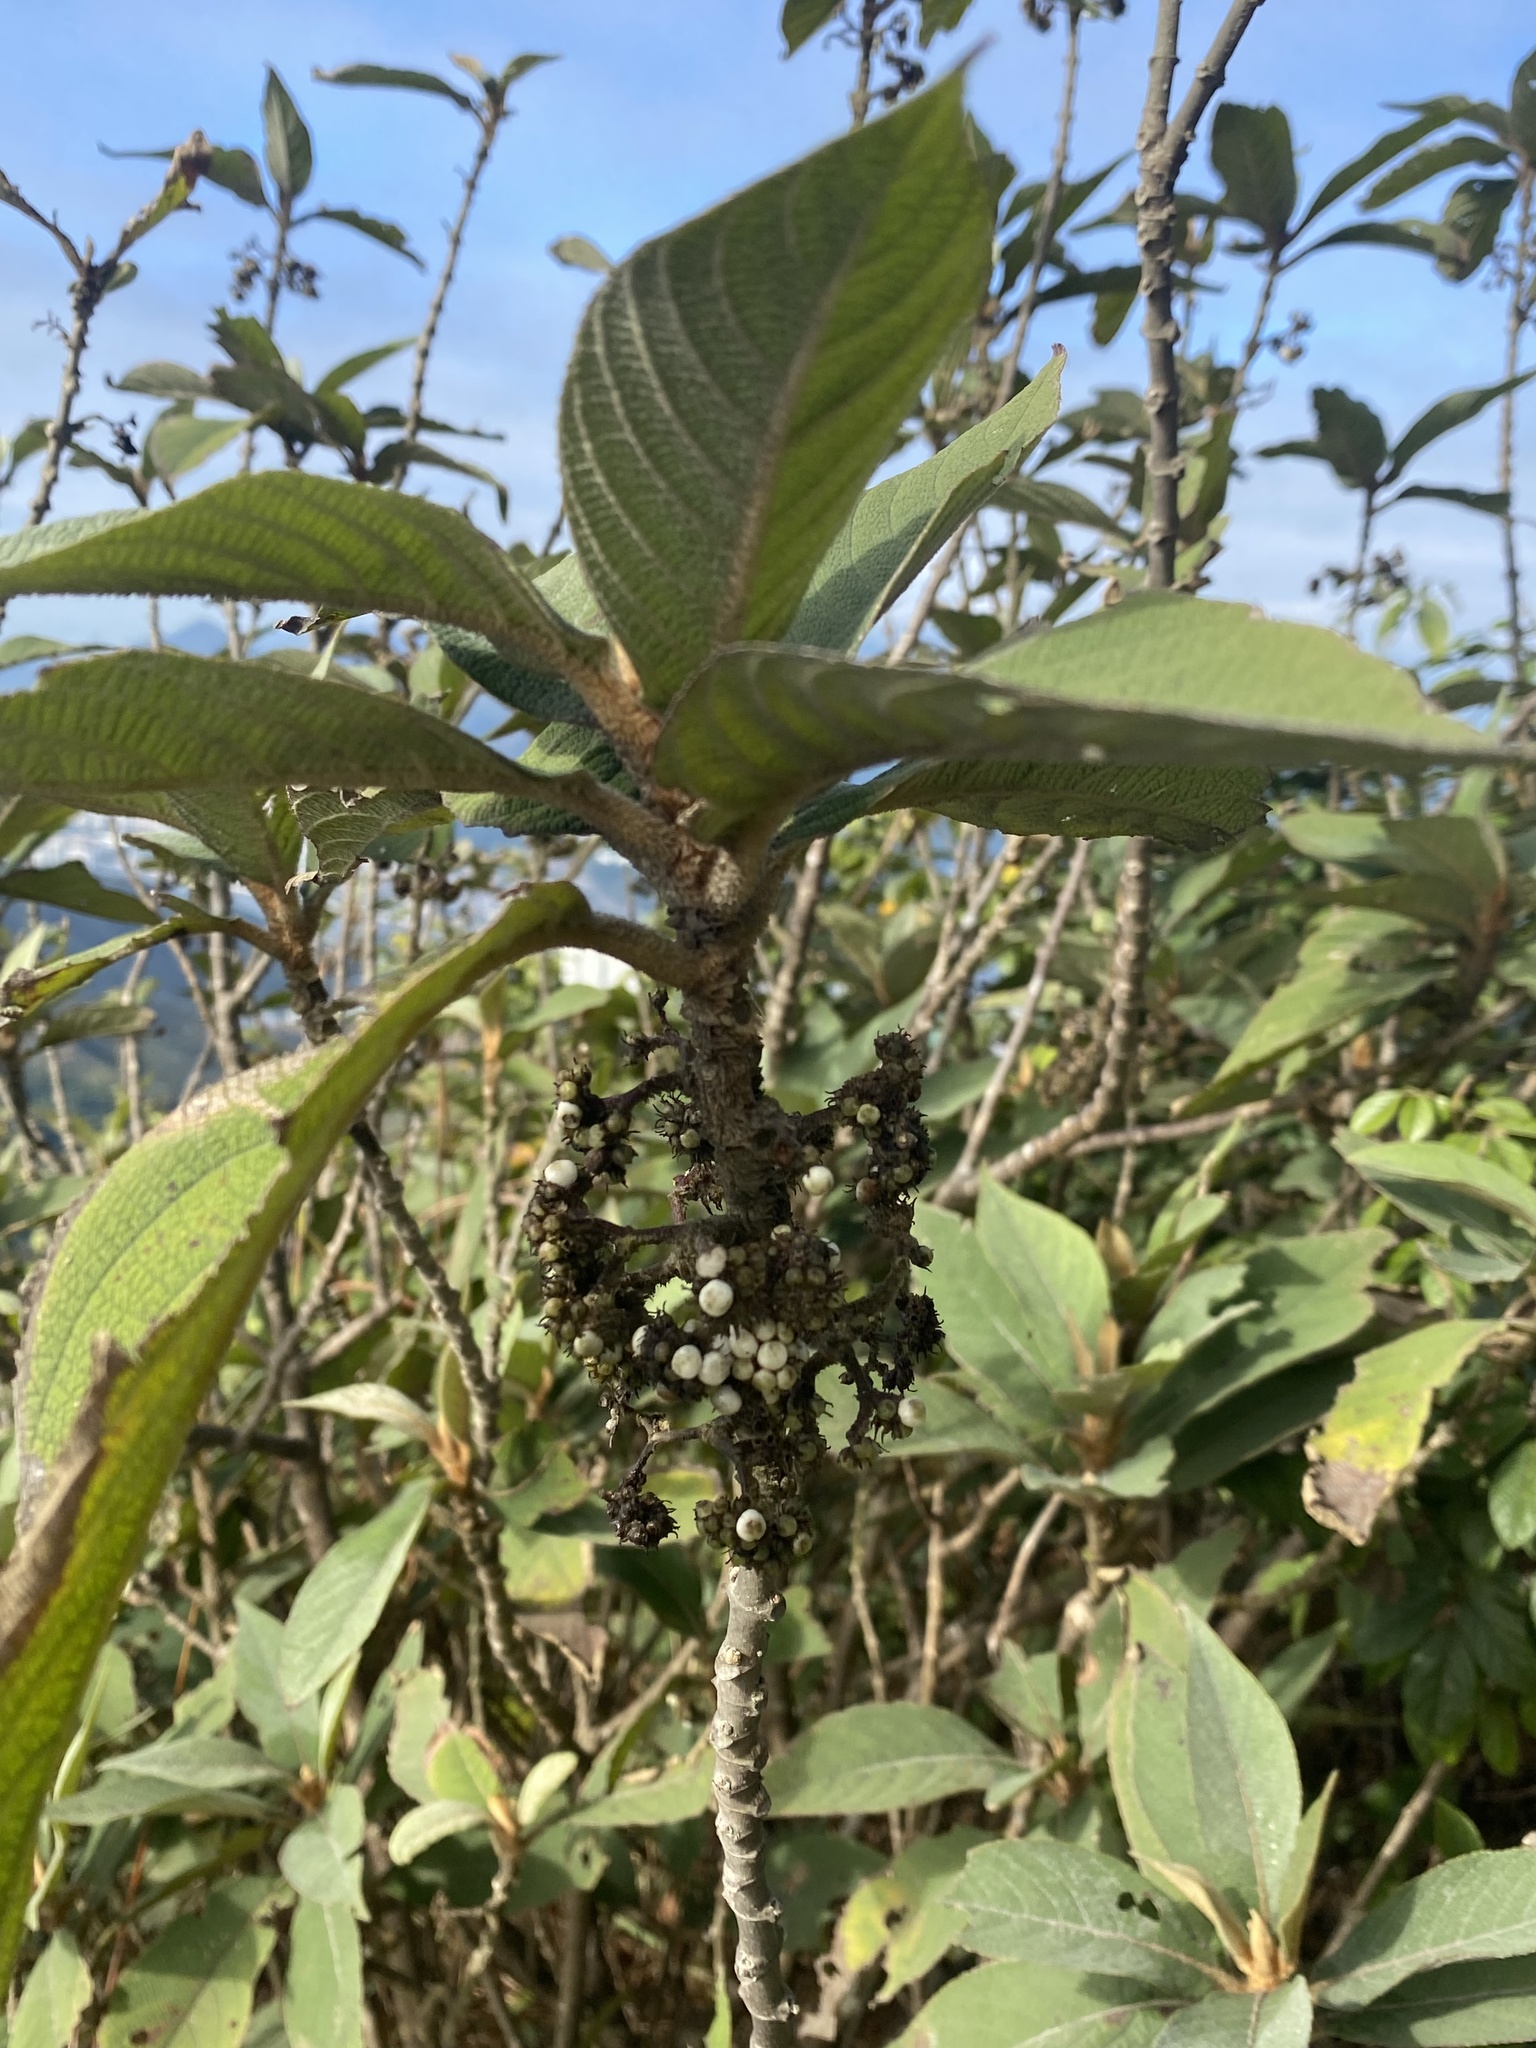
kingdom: Plantae
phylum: Tracheophyta
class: Magnoliopsida
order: Lamiales
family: Lamiaceae
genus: Callicarpa
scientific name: Callicarpa kochiana
